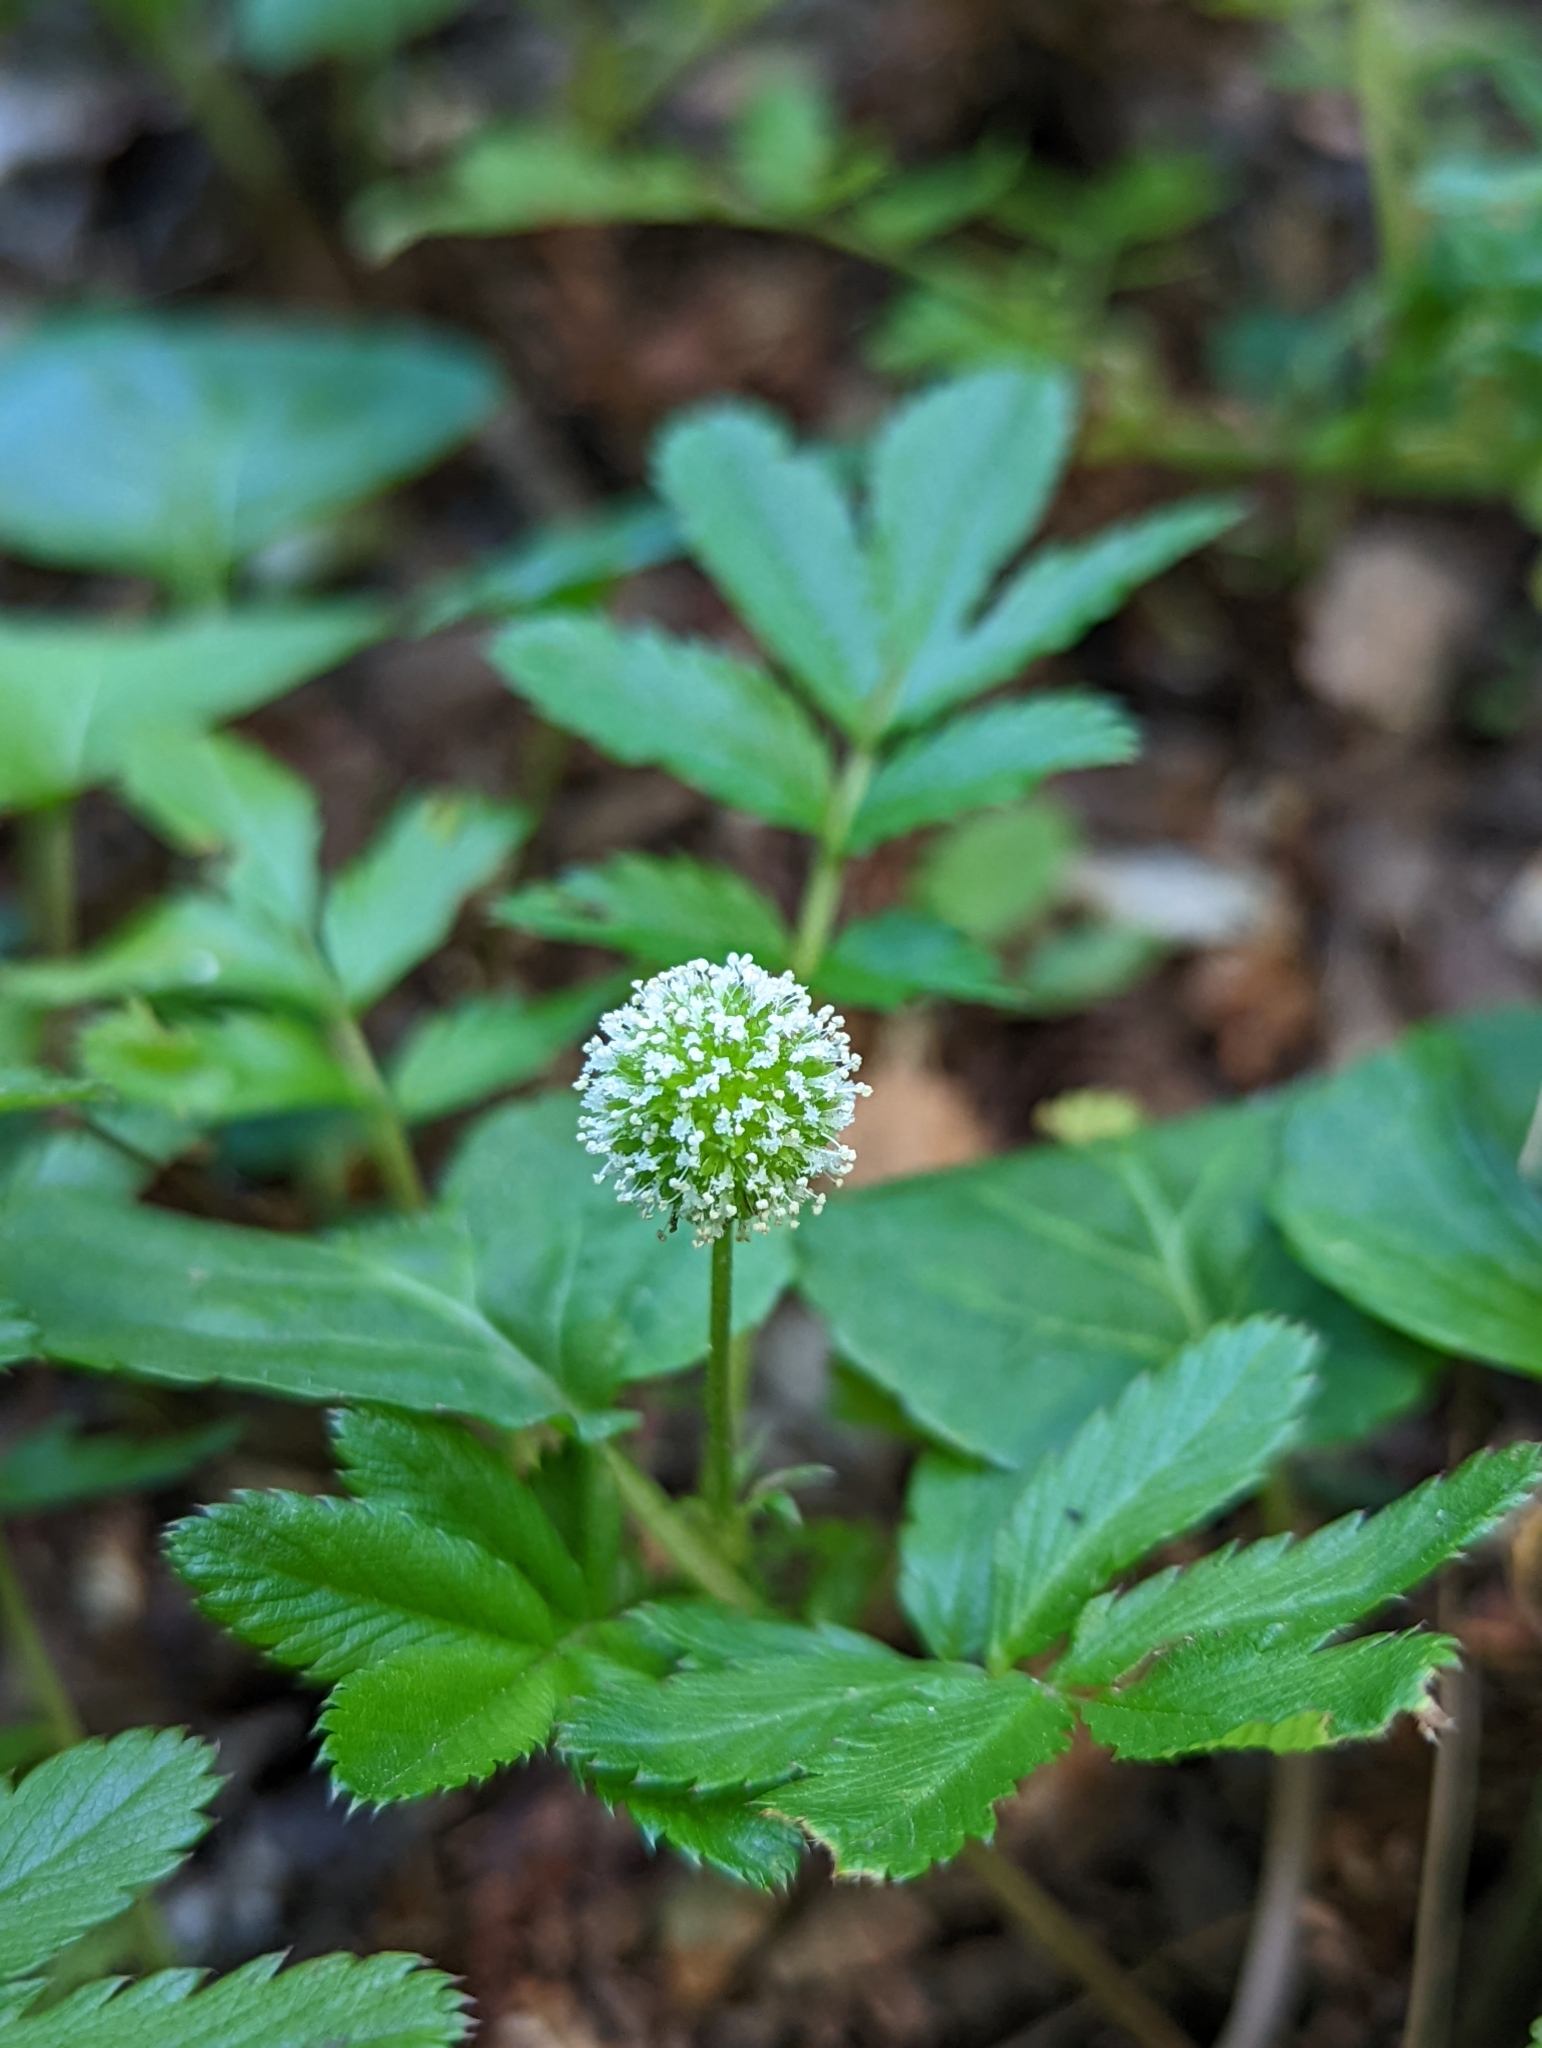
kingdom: Plantae
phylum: Tracheophyta
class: Magnoliopsida
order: Rosales
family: Rosaceae
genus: Acaena
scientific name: Acaena ovalifolia
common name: Two-spined acaena
